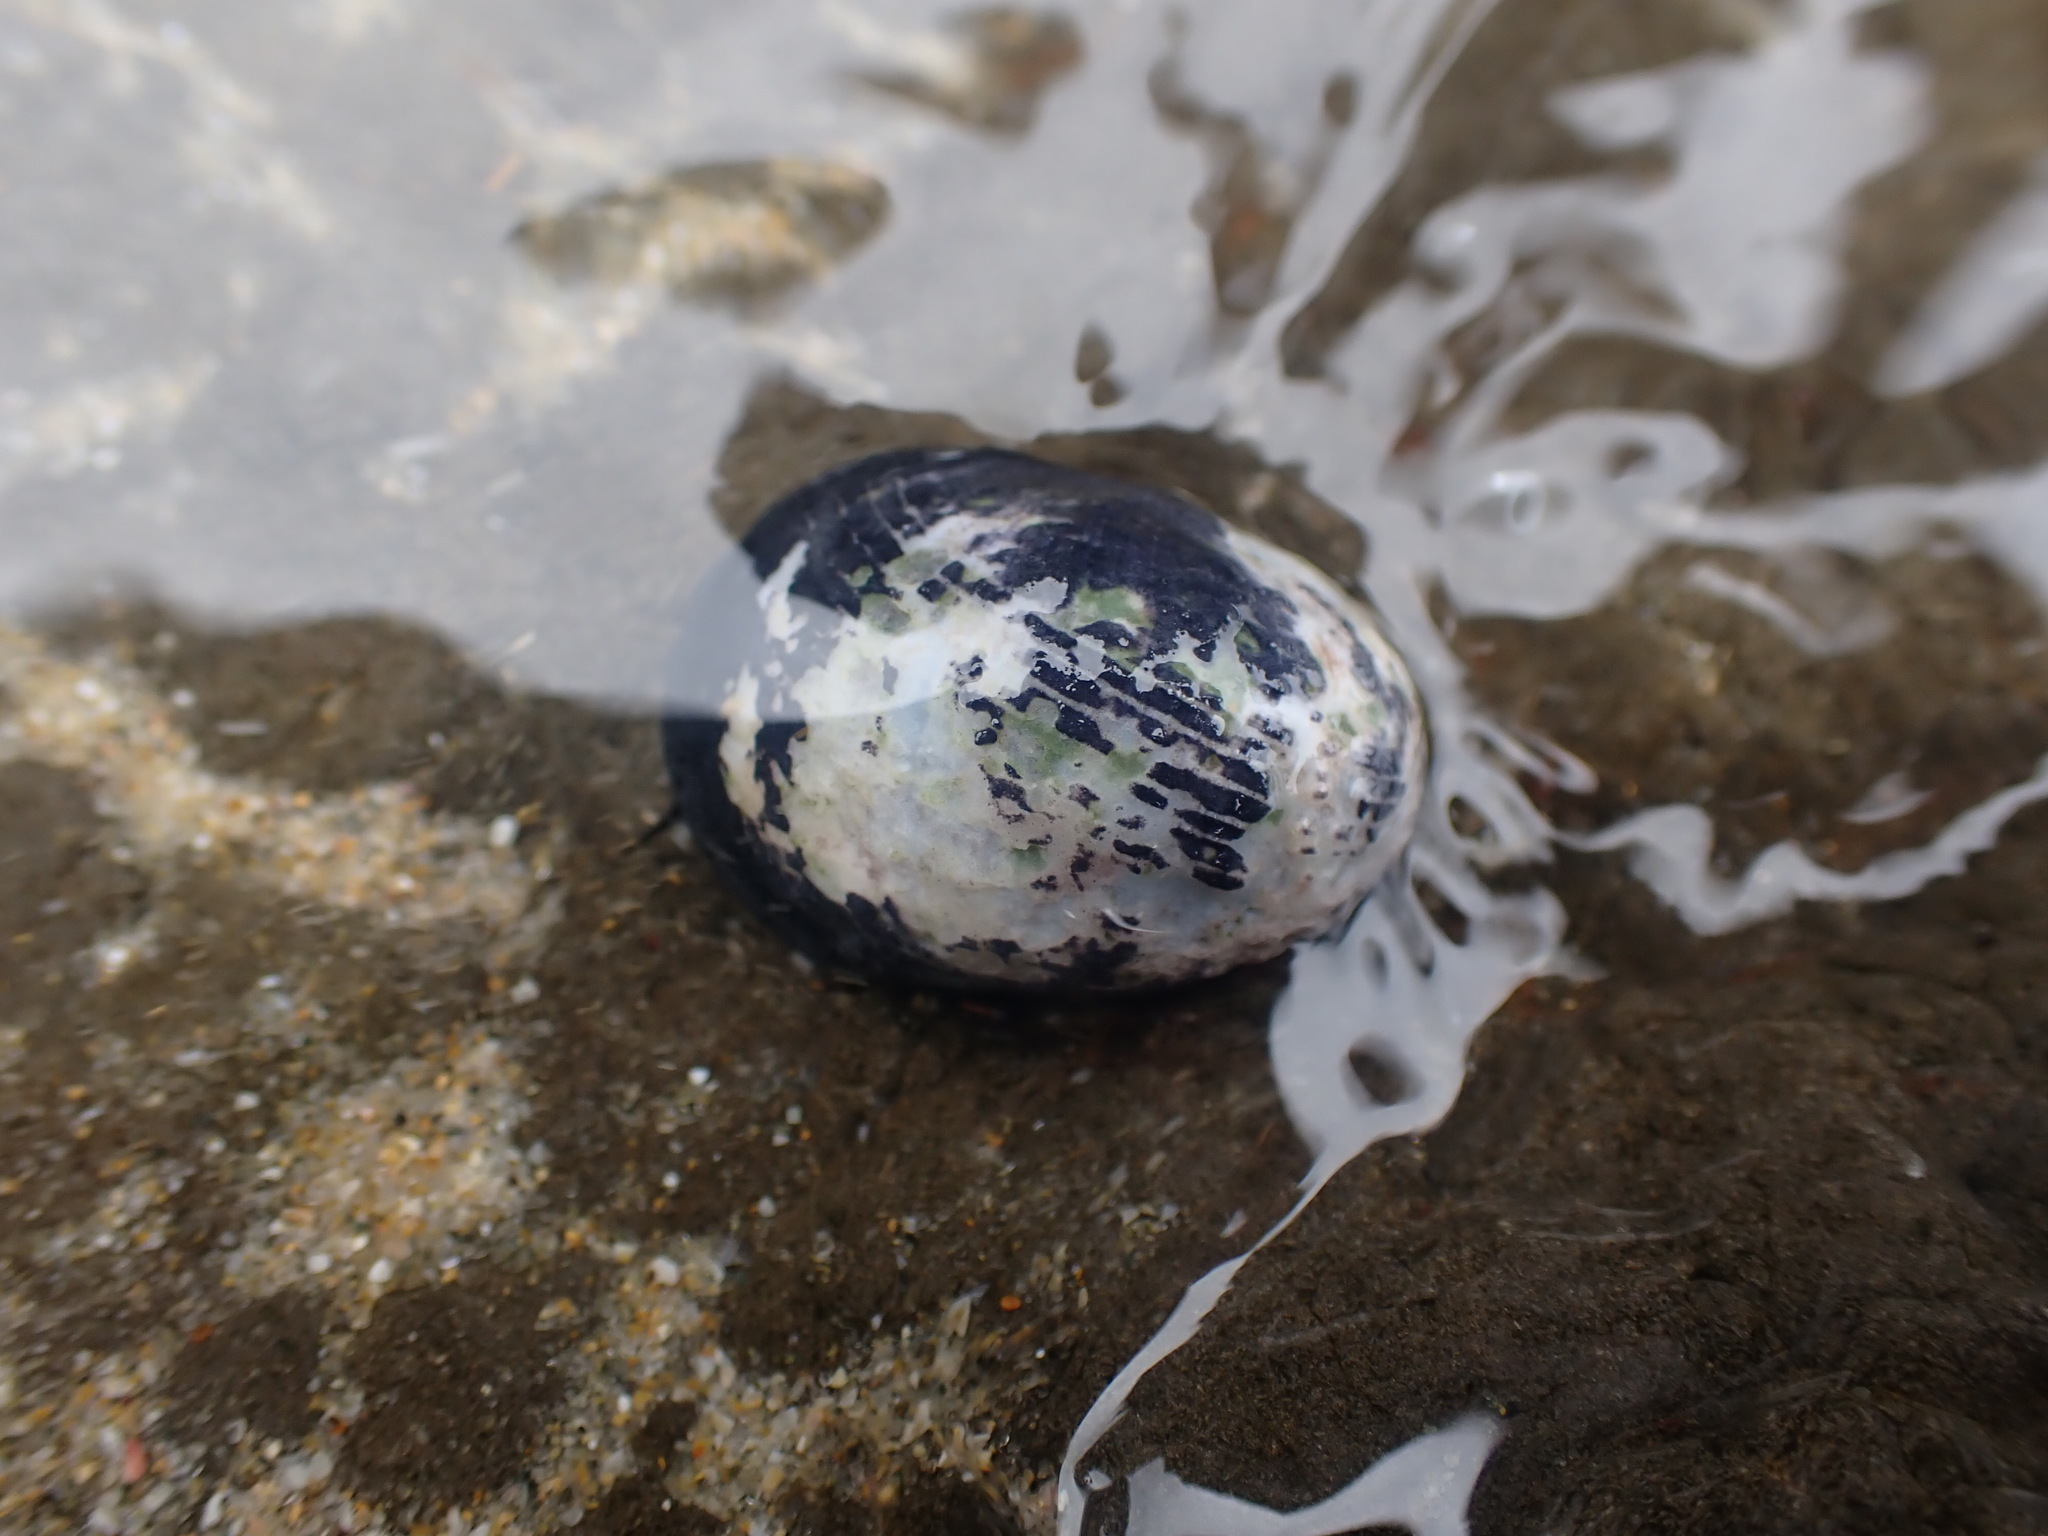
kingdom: Animalia
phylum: Mollusca
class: Gastropoda
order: Cycloneritida
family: Neritidae
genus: Nerita
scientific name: Nerita melanotragus
